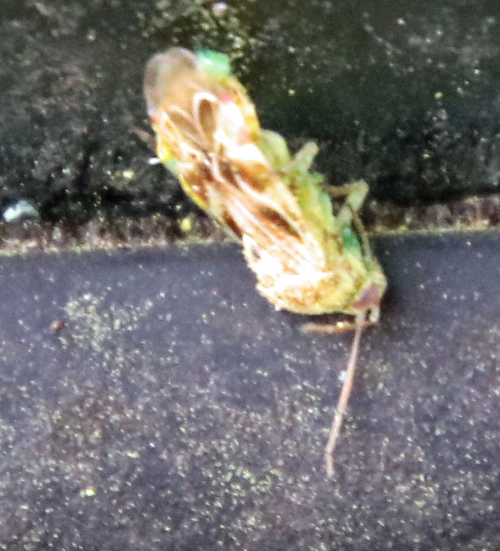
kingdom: Animalia
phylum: Arthropoda
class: Insecta
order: Hemiptera
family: Miridae
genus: Tropidosteptes
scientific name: Tropidosteptes quercicola
